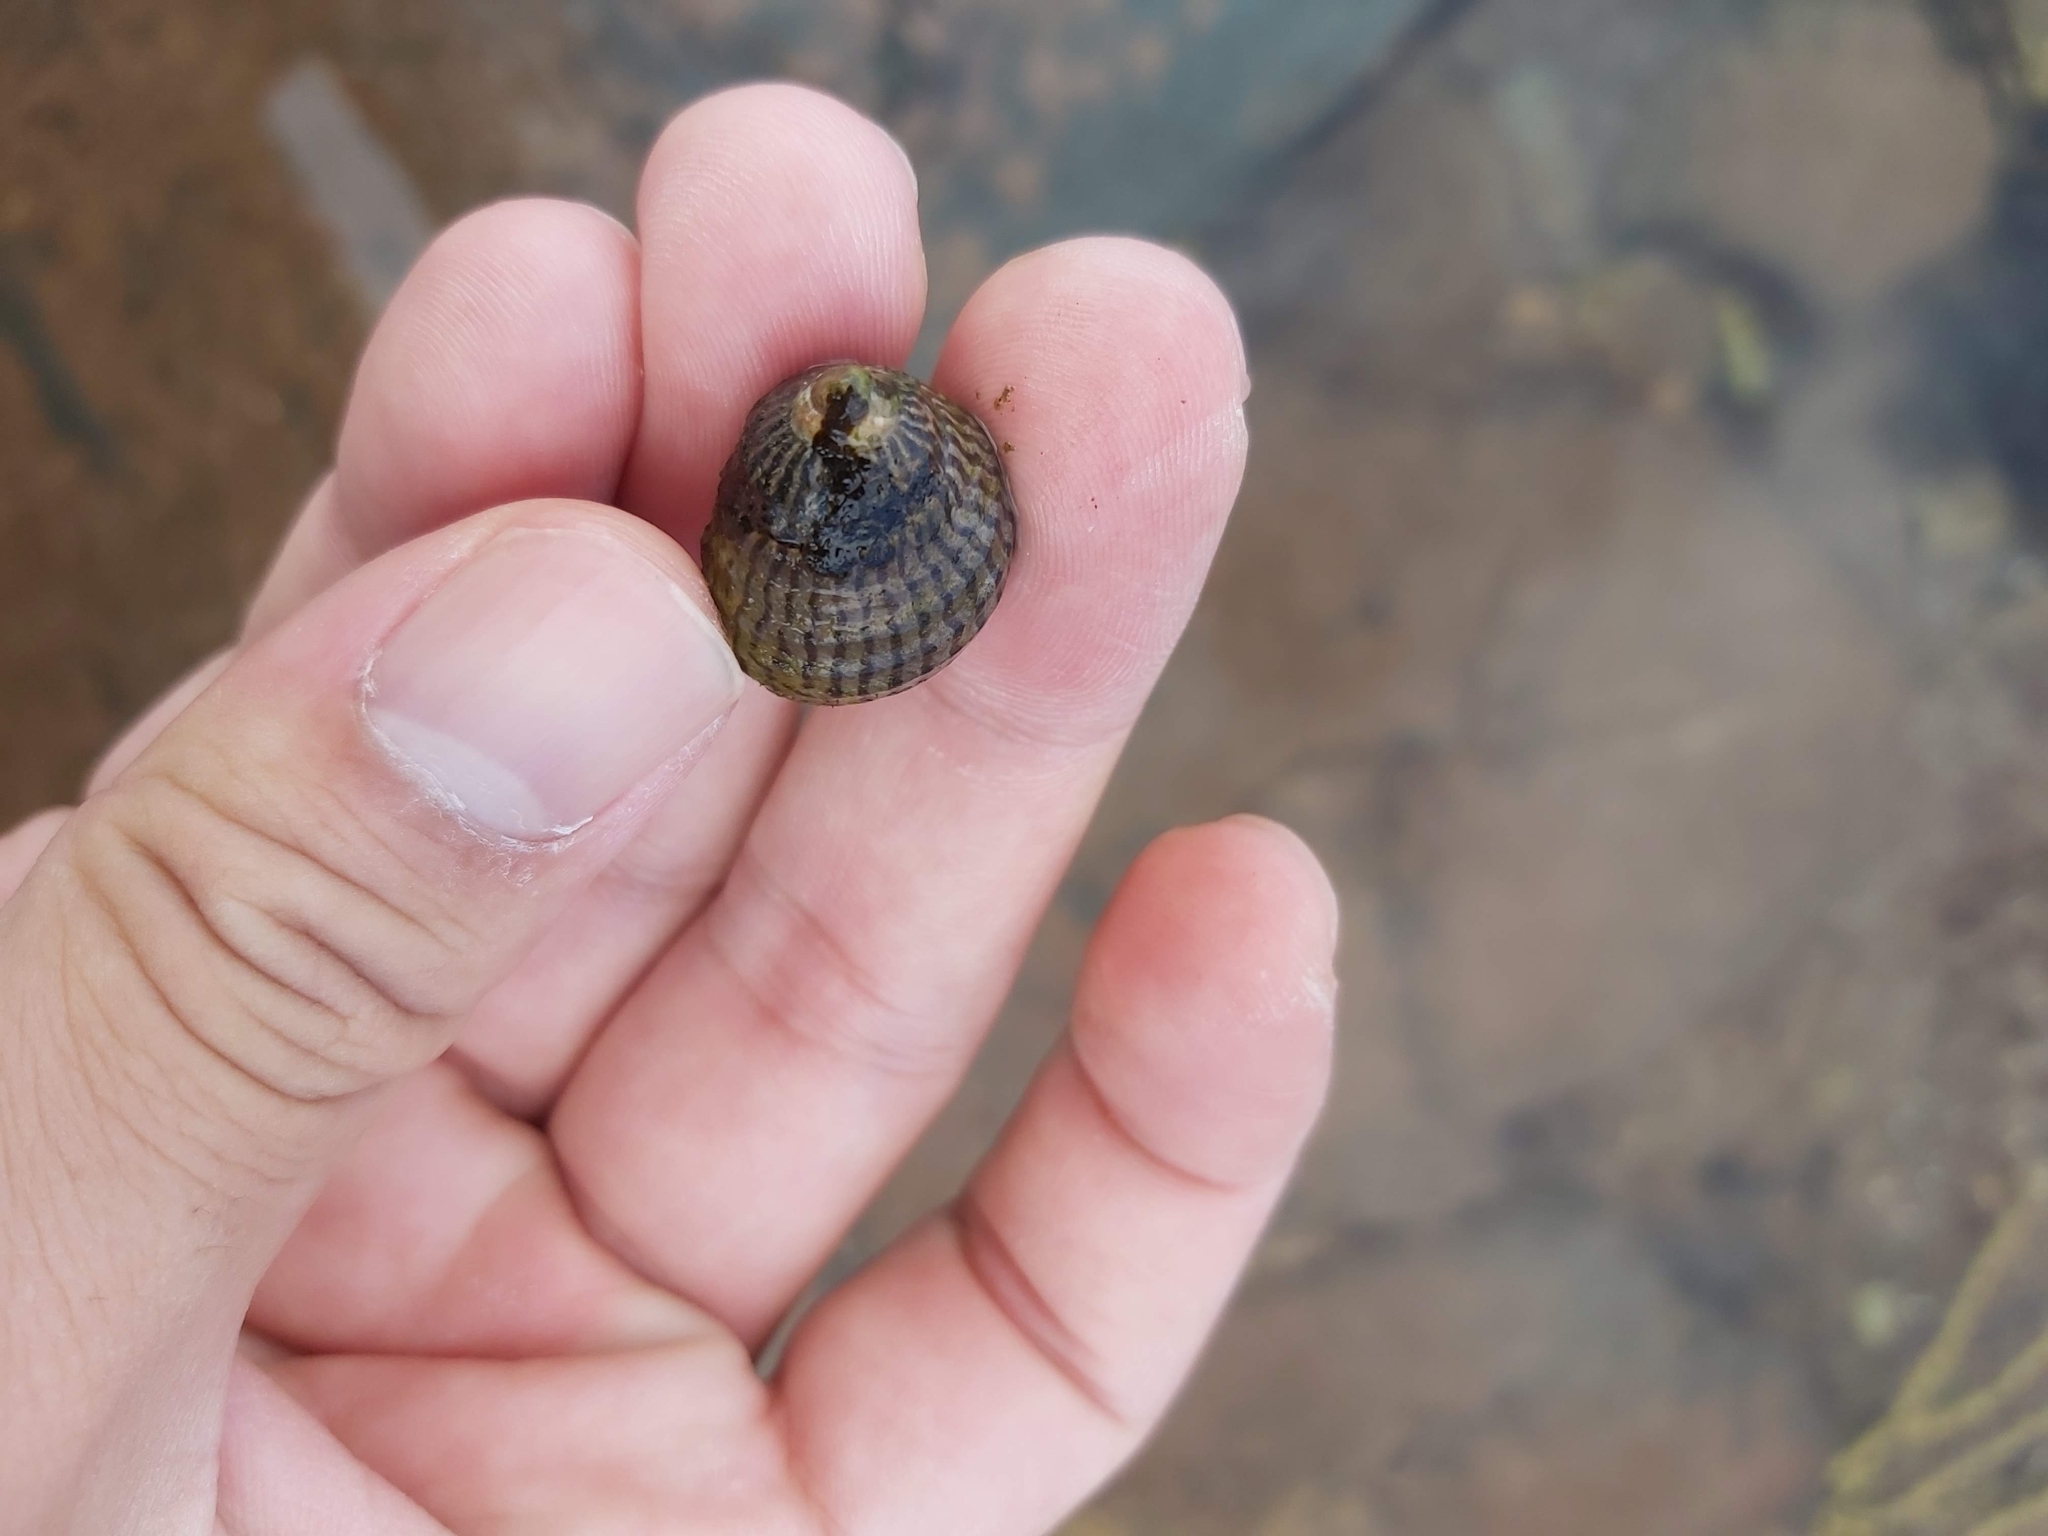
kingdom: Animalia
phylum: Mollusca
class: Gastropoda
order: Trochida
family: Trochidae
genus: Austrocochlea
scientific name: Austrocochlea porcata
